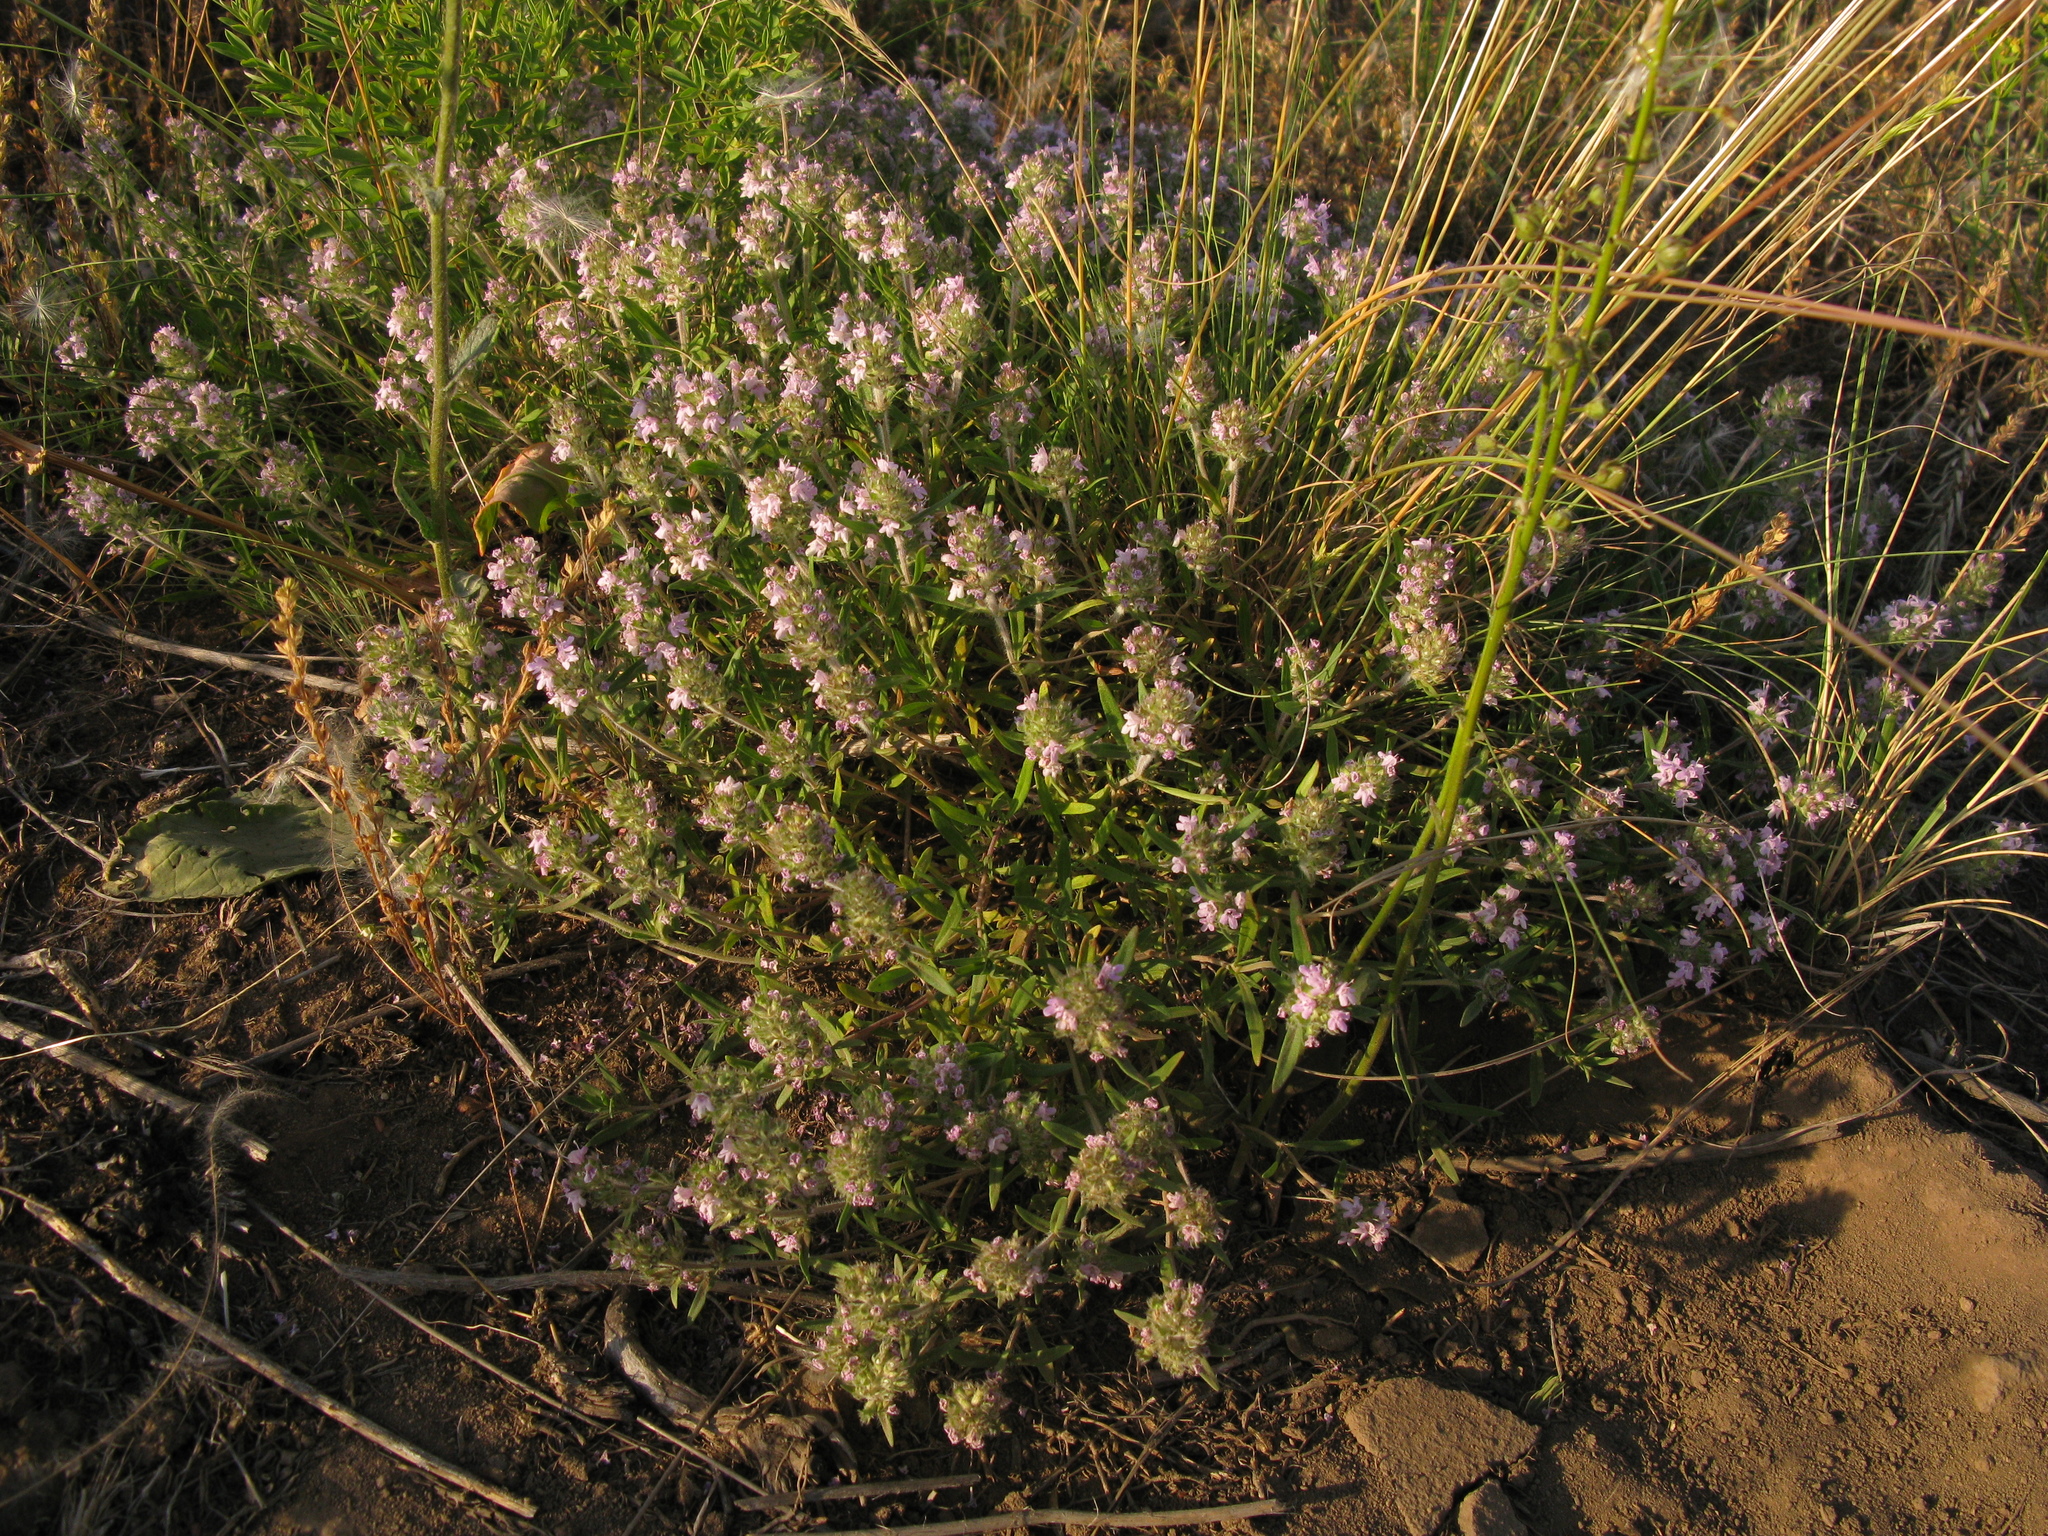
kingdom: Plantae
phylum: Tracheophyta
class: Magnoliopsida
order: Lamiales
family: Lamiaceae
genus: Thymus
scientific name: Thymus pannonicus
